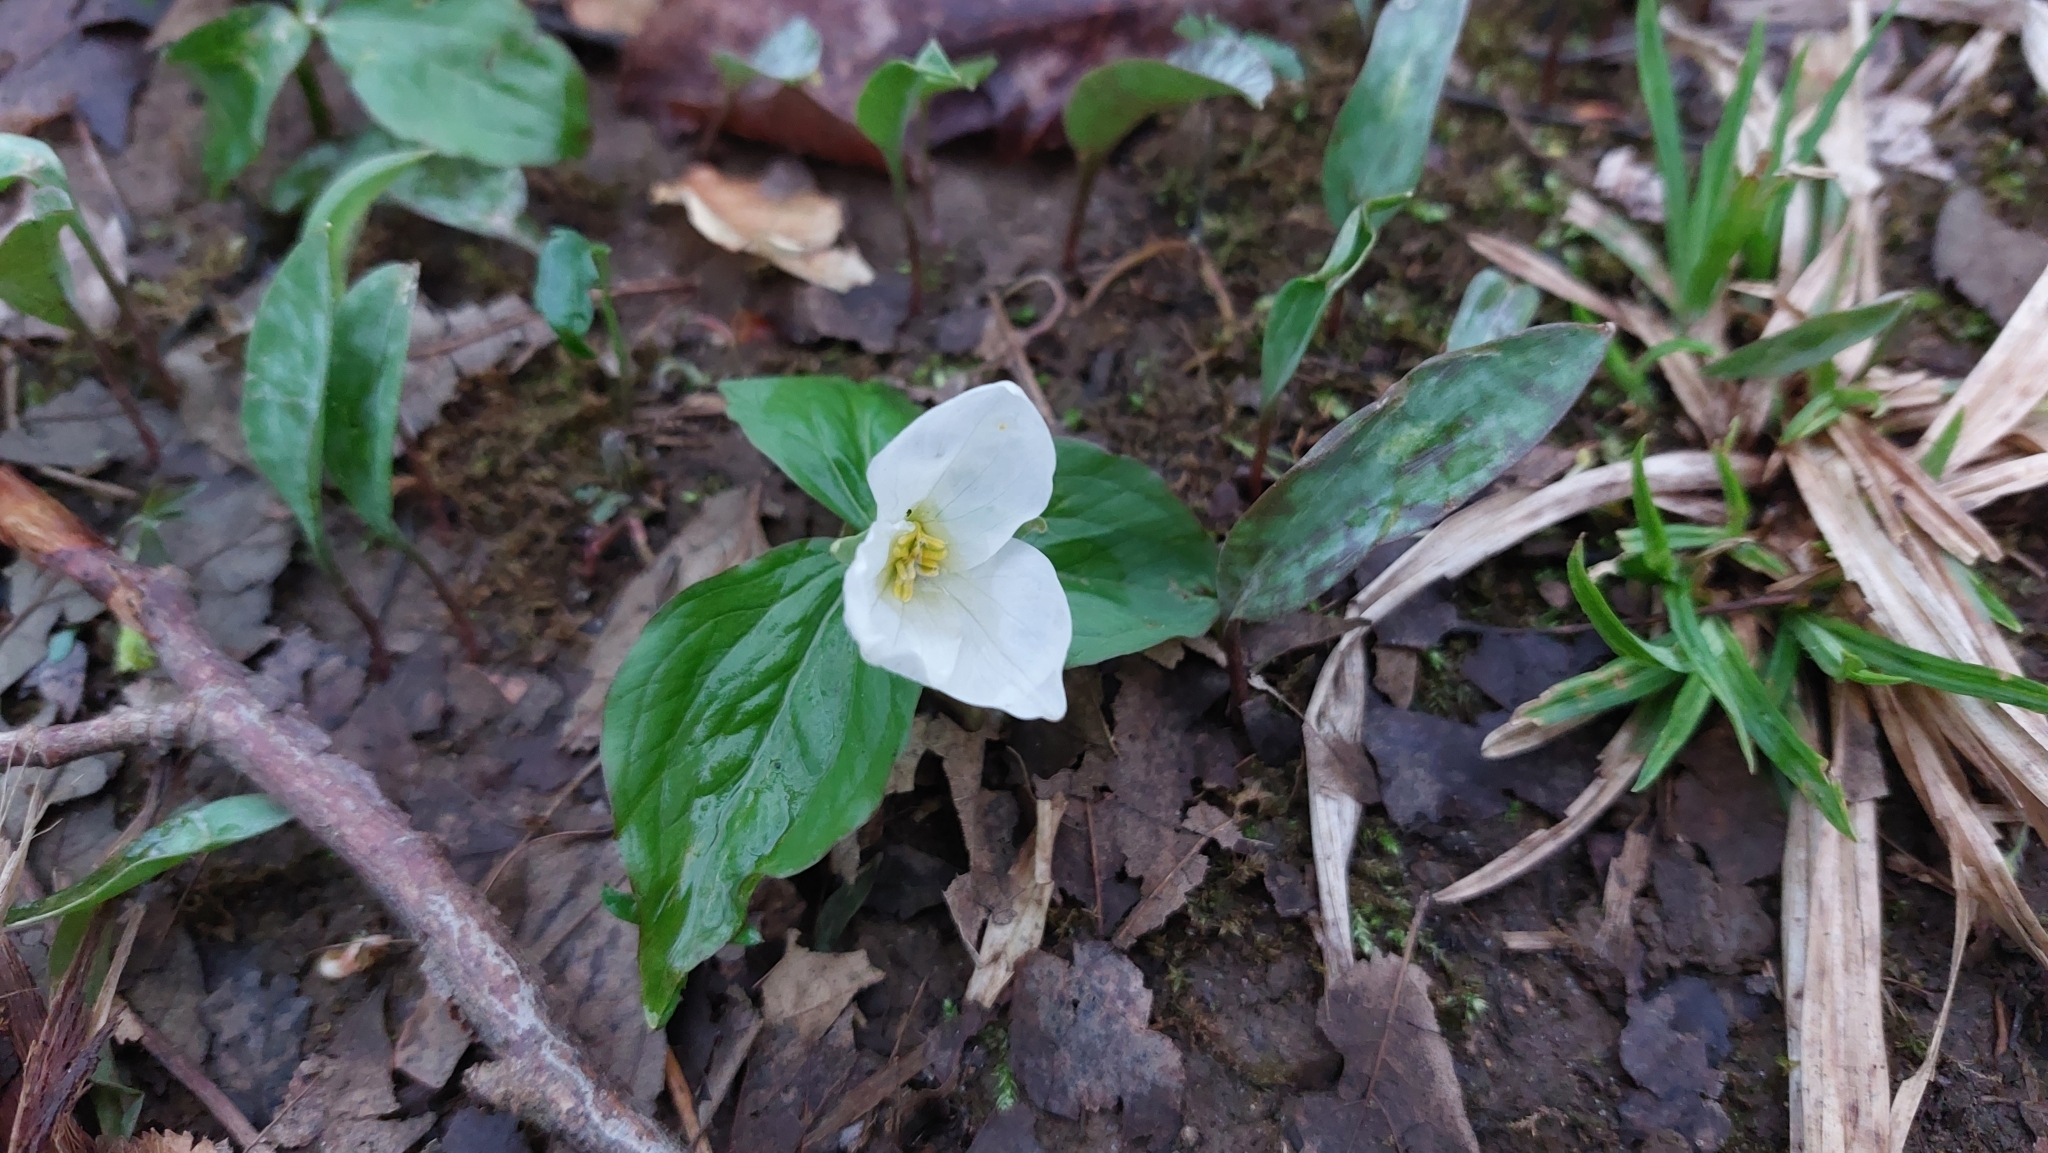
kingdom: Plantae
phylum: Tracheophyta
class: Liliopsida
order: Liliales
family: Melanthiaceae
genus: Trillium
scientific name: Trillium grandiflorum
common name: Great white trillium
